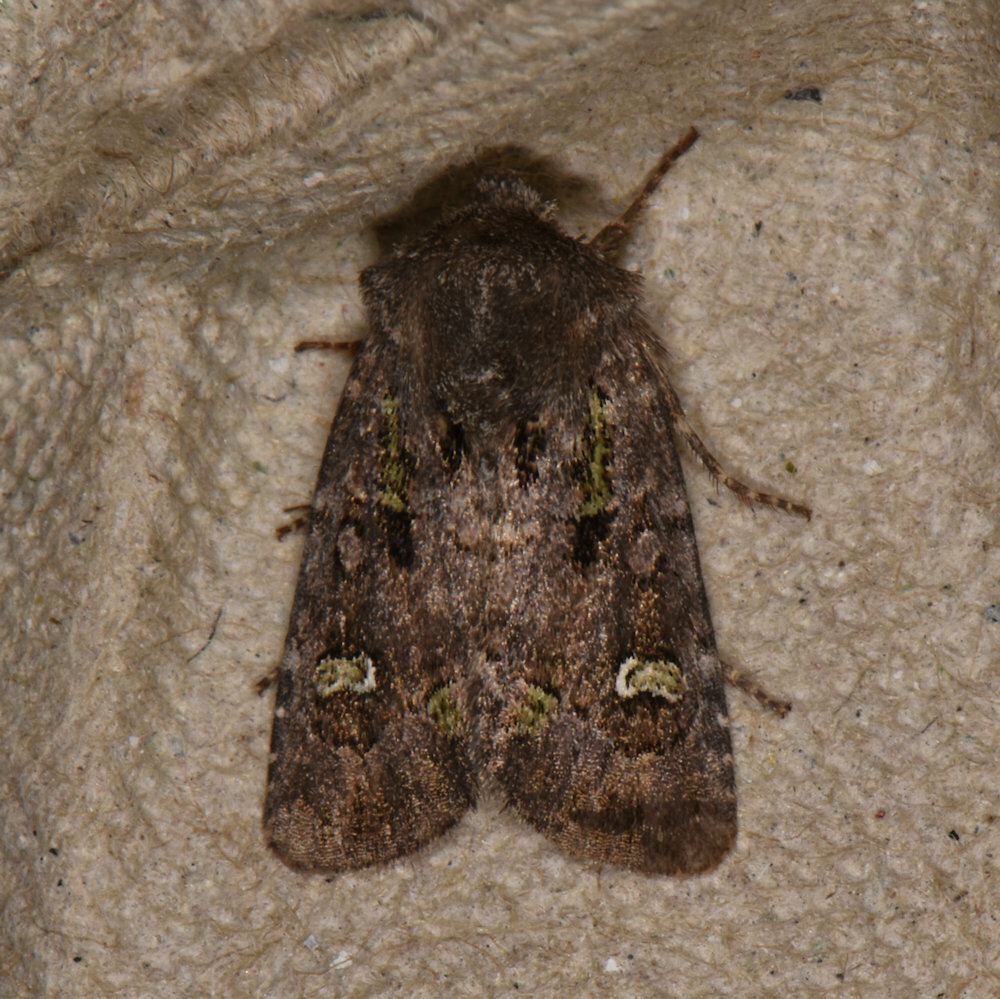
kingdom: Animalia
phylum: Arthropoda
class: Insecta
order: Lepidoptera
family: Noctuidae
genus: Lacinipolia
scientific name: Lacinipolia renigera
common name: Kidney-spotted minor
